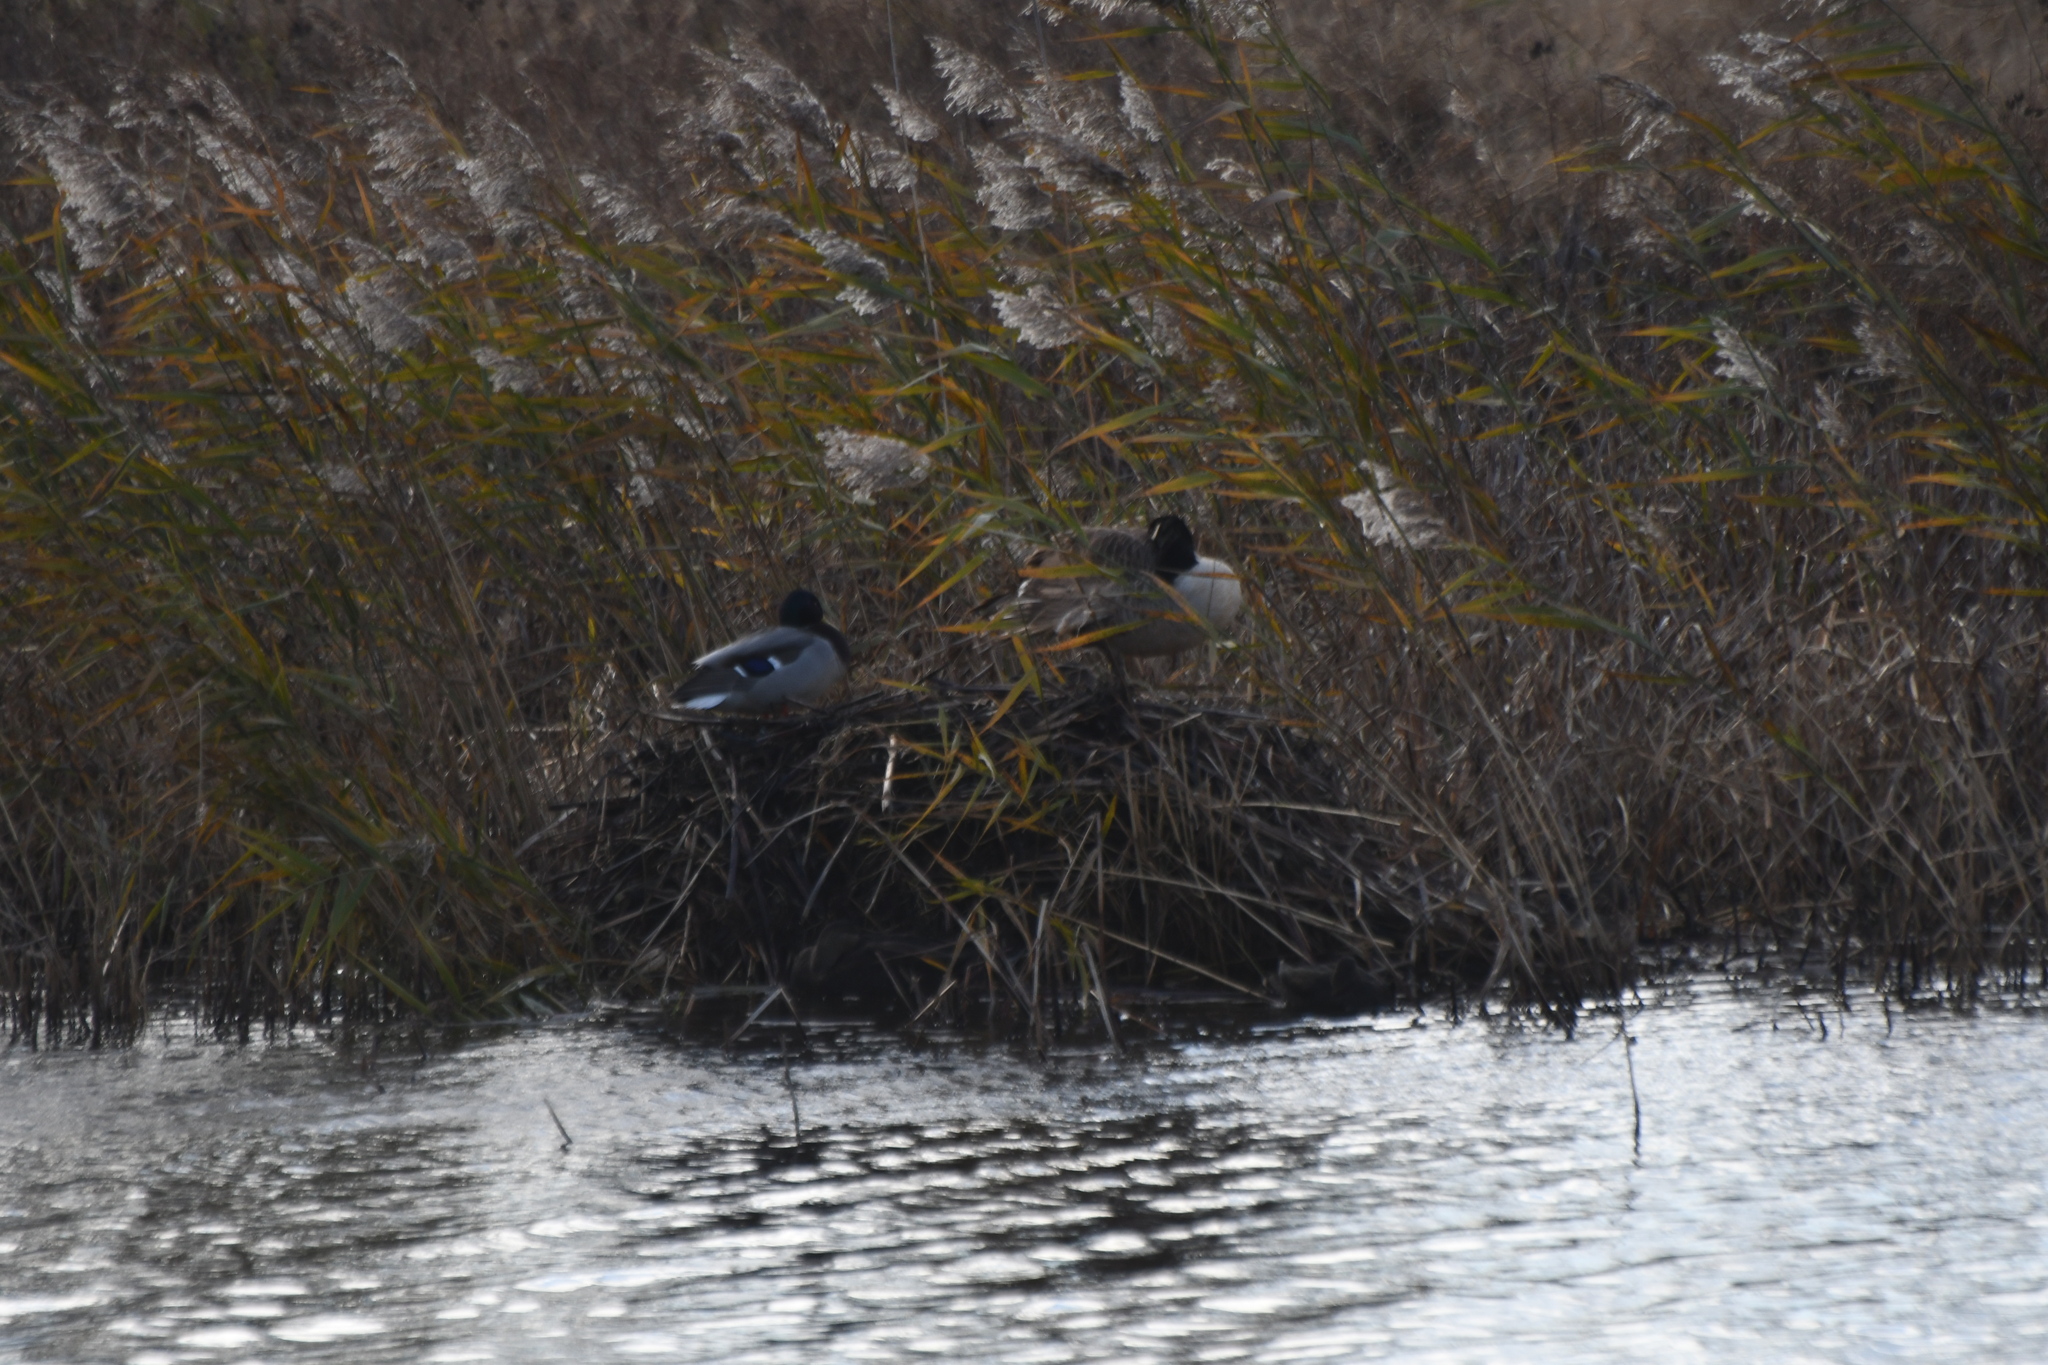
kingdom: Animalia
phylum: Chordata
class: Aves
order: Anseriformes
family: Anatidae
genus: Anas
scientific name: Anas platyrhynchos
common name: Mallard
